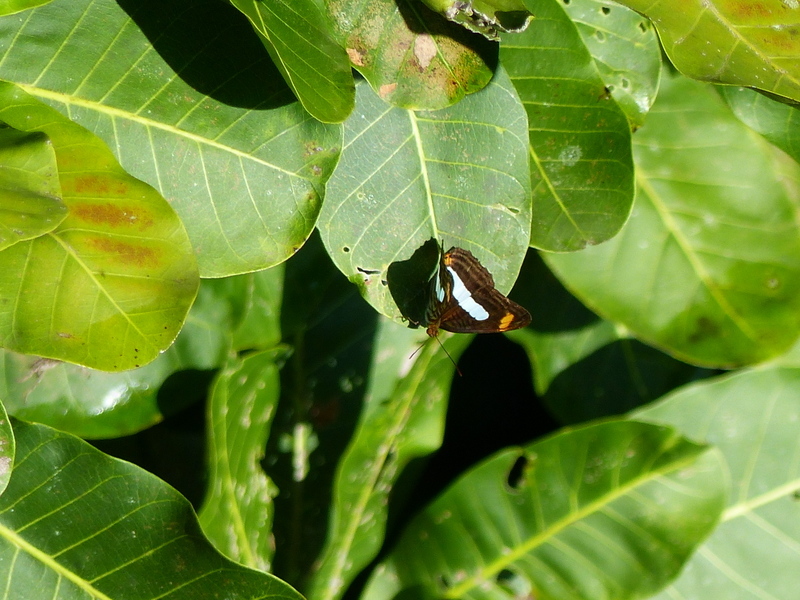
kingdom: Animalia
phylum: Arthropoda
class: Insecta
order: Lepidoptera
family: Nymphalidae
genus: Limenitis
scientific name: Limenitis Adelpha iphiclus
